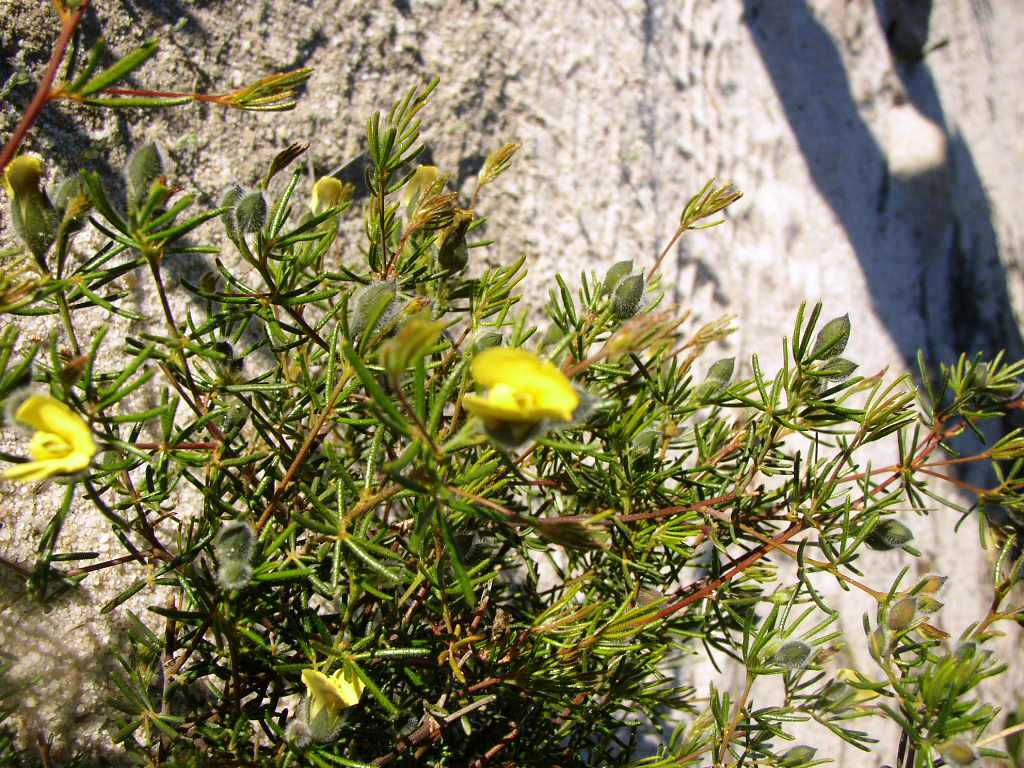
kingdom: Plantae
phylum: Tracheophyta
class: Magnoliopsida
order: Fabales
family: Fabaceae
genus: Gompholobium
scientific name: Gompholobium tomentosum
